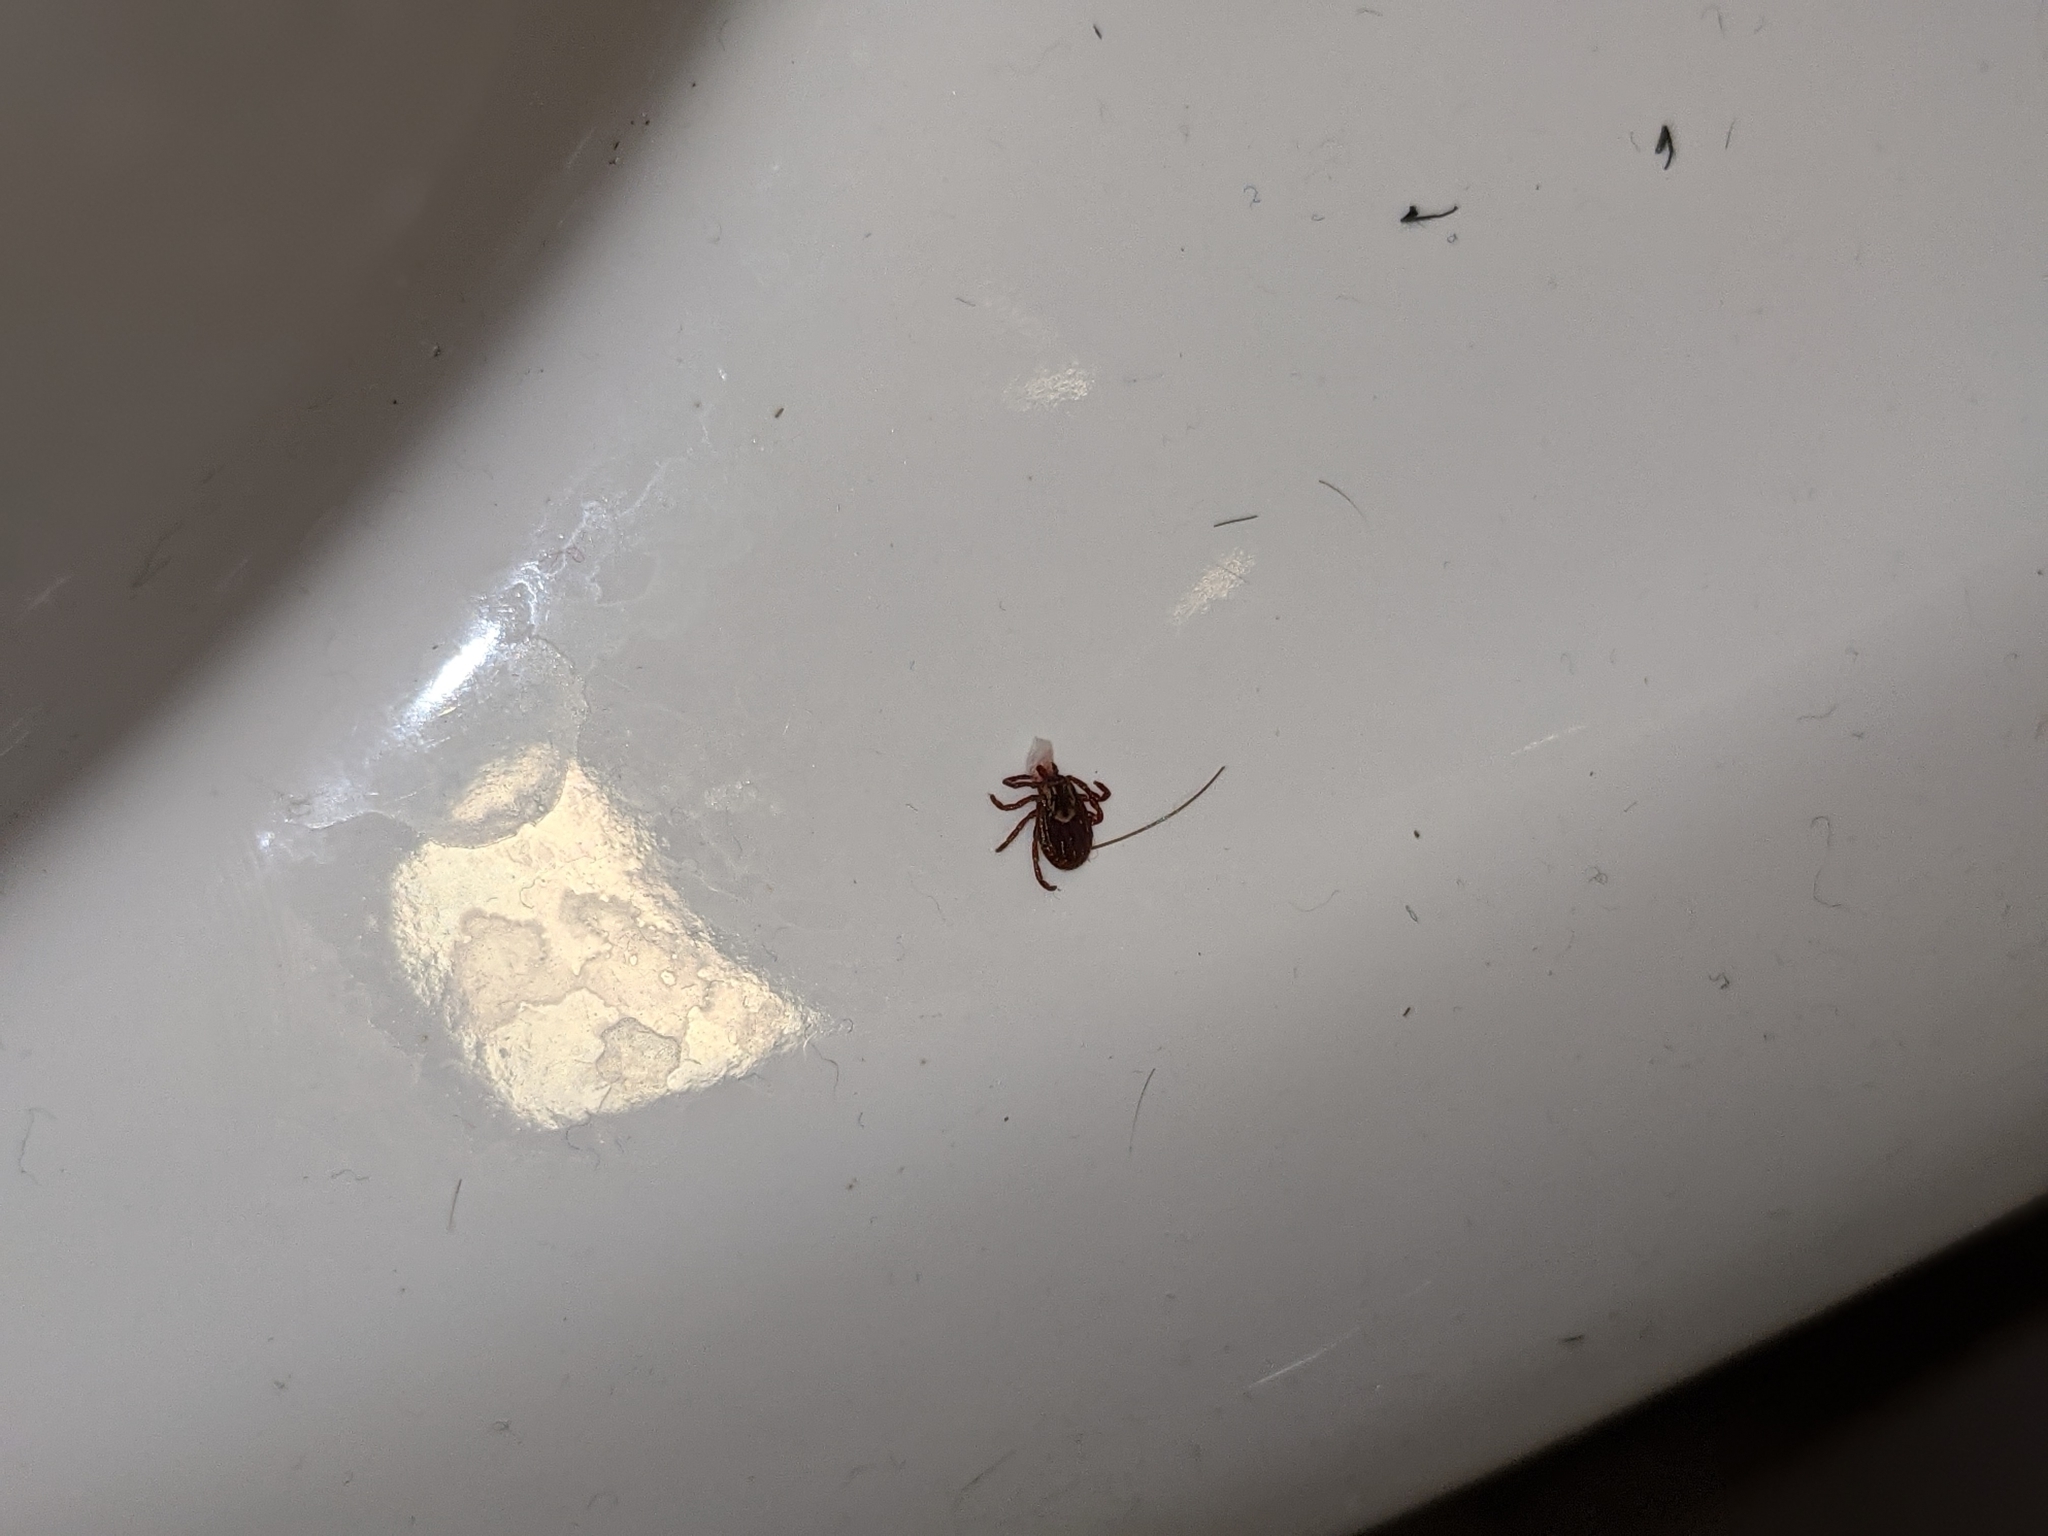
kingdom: Animalia
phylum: Arthropoda
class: Arachnida
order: Ixodida
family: Ixodidae
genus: Dermacentor
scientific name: Dermacentor variabilis
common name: American dog tick
